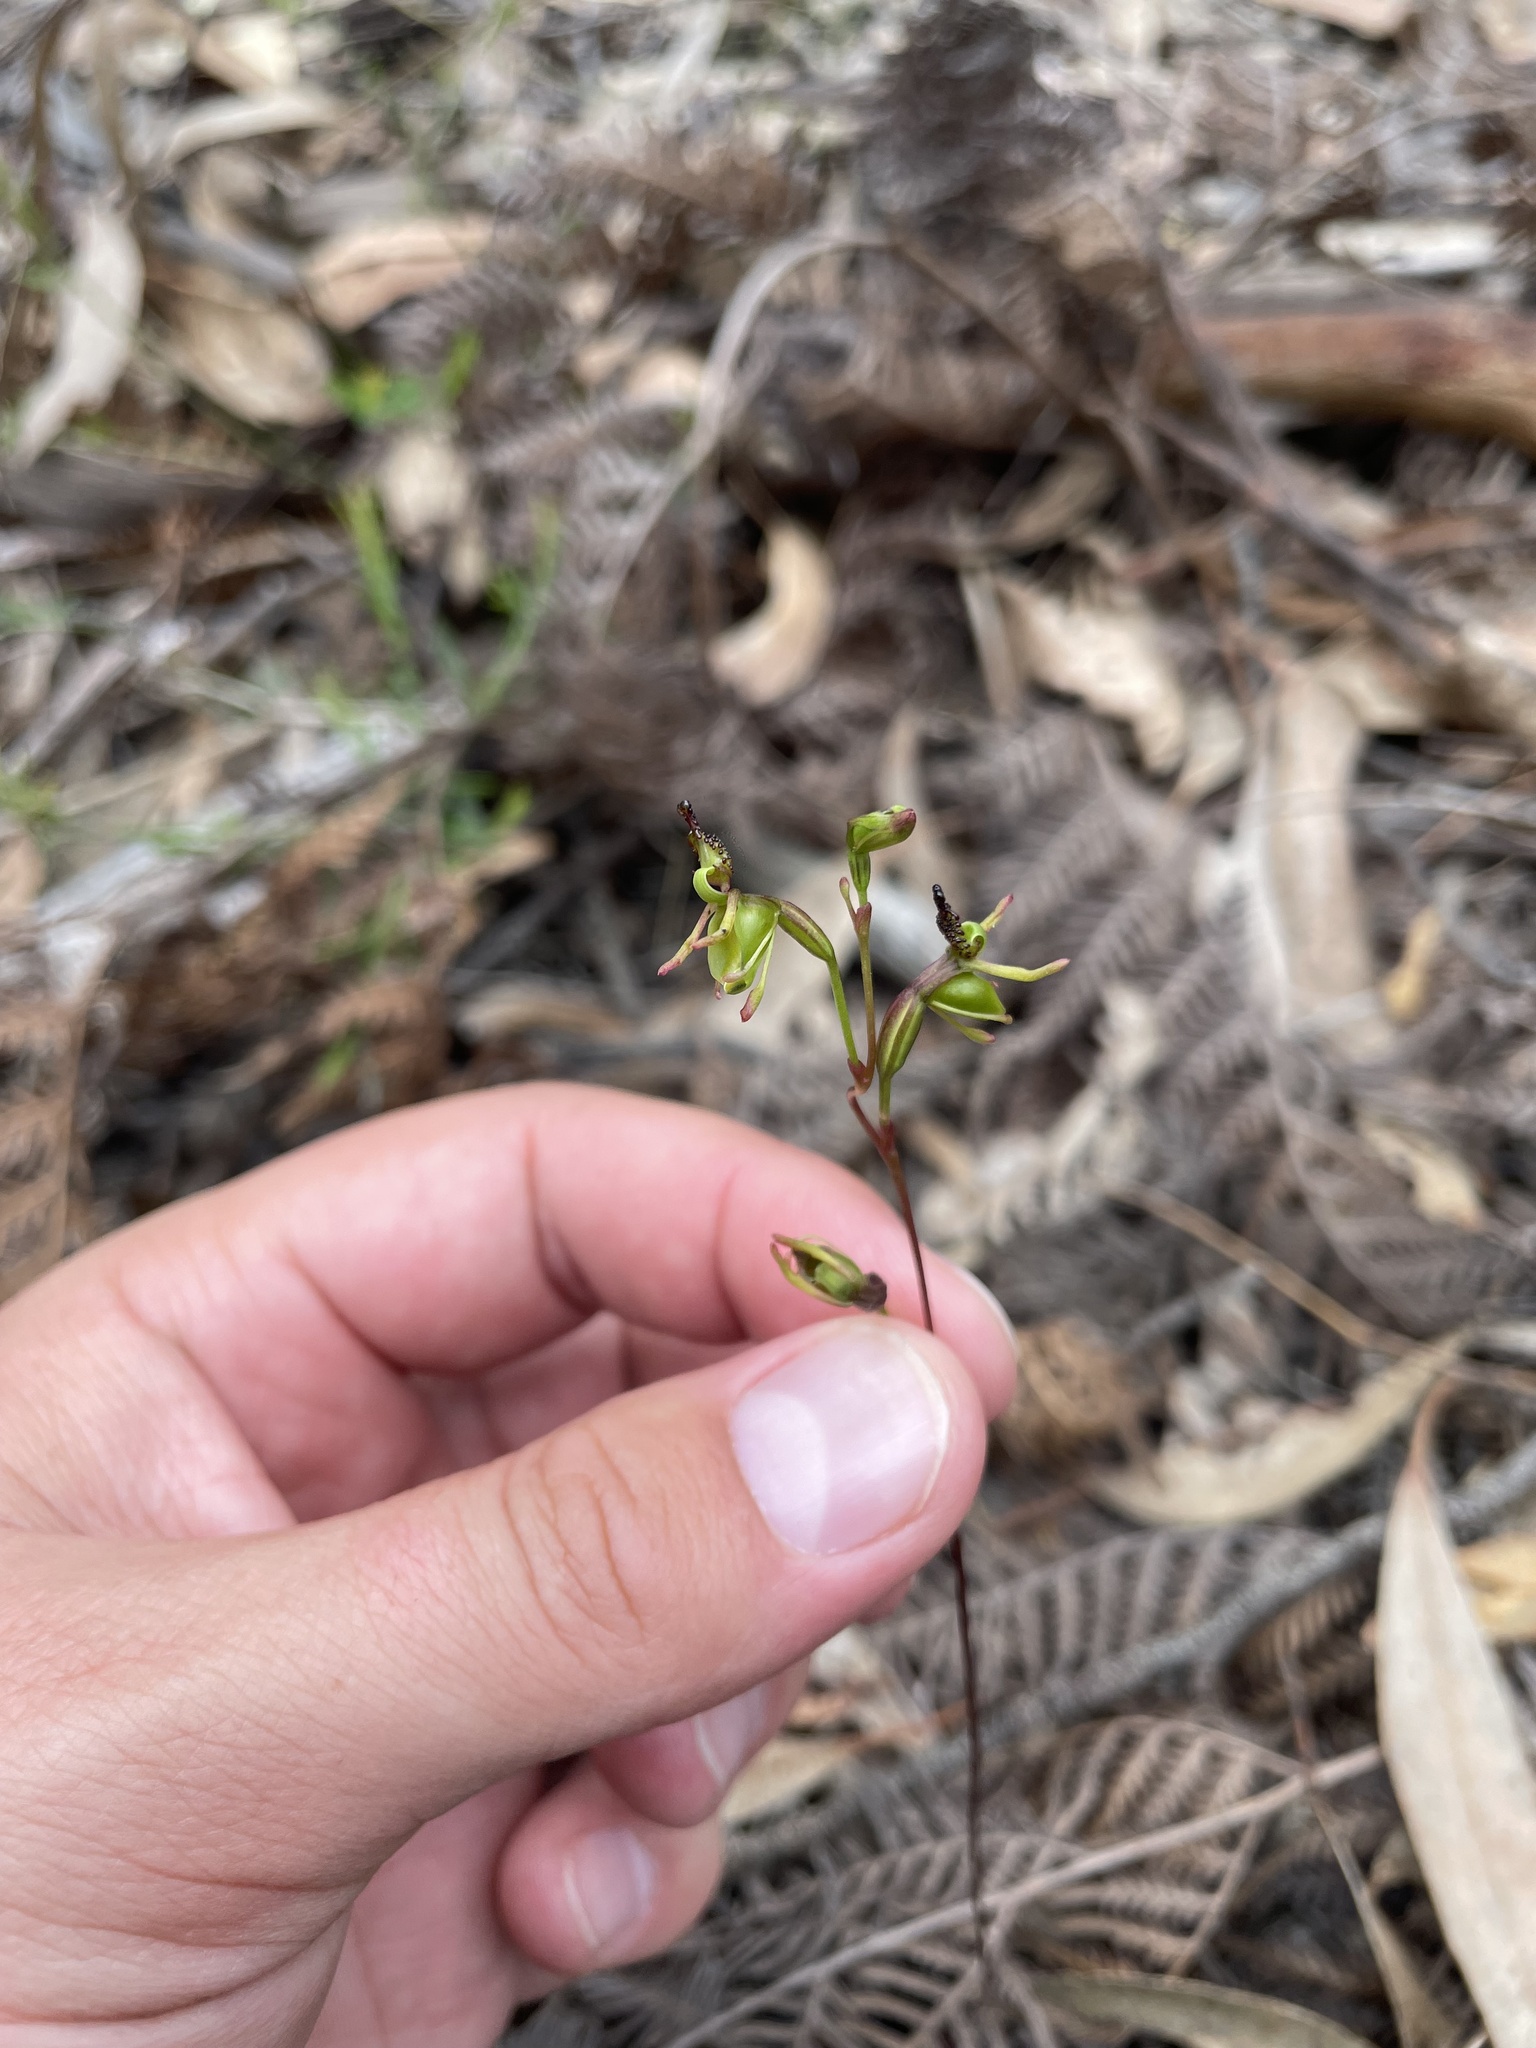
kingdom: Plantae
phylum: Tracheophyta
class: Liliopsida
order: Asparagales
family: Orchidaceae
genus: Caleana
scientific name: Caleana minor
